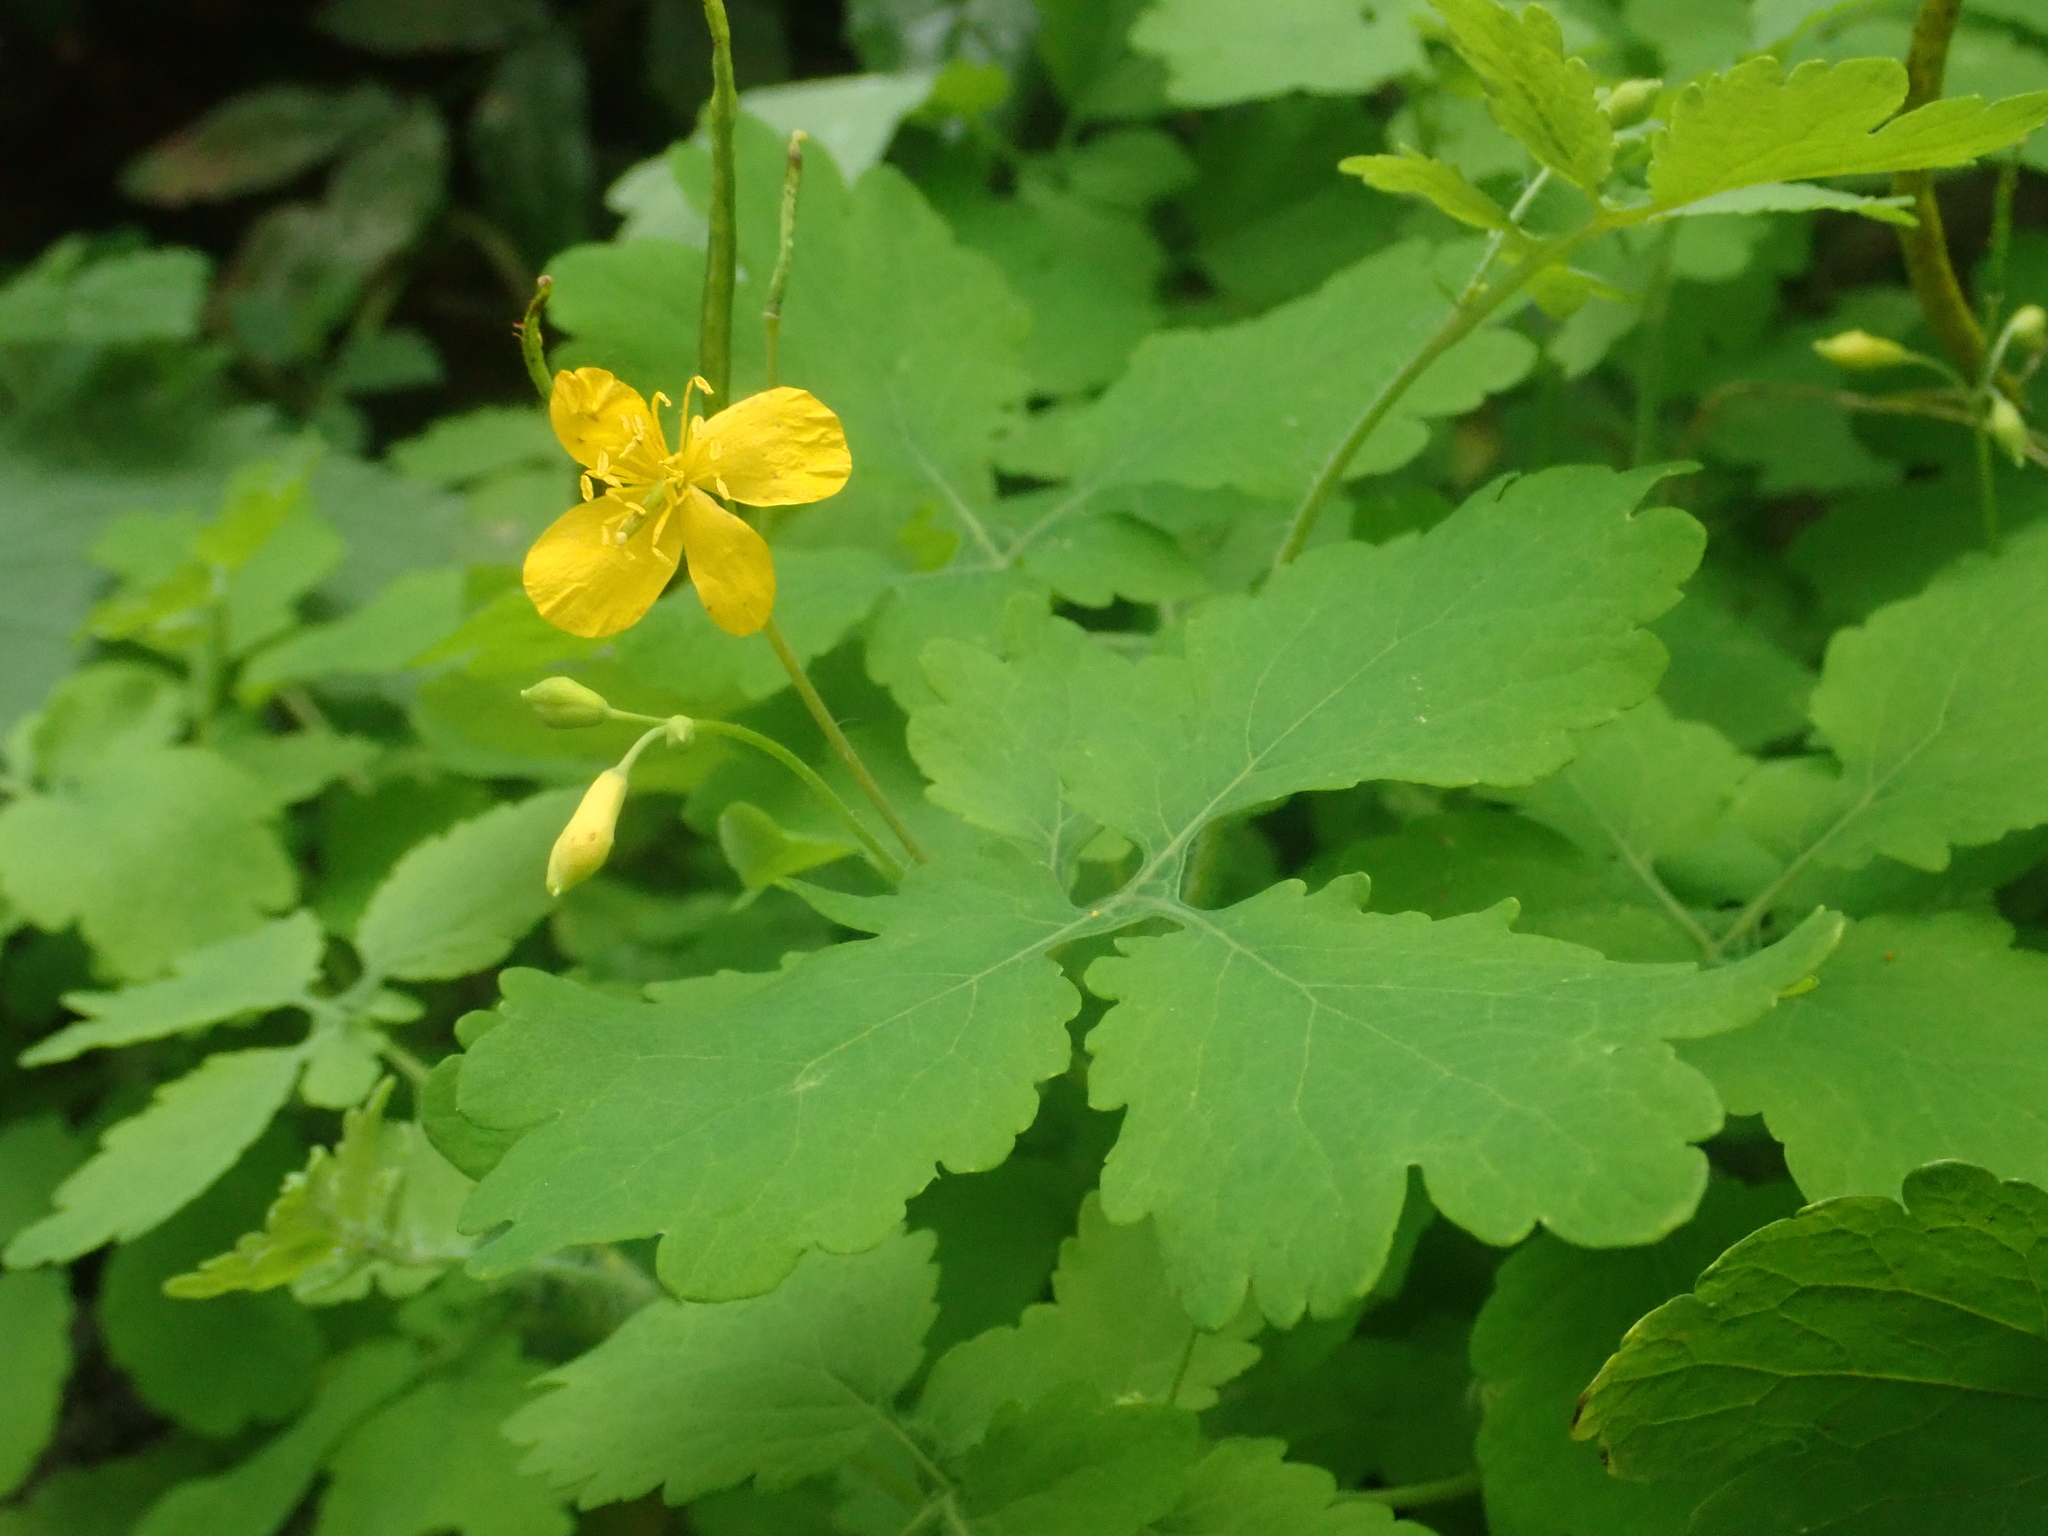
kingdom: Plantae
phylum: Tracheophyta
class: Magnoliopsida
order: Ranunculales
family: Papaveraceae
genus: Chelidonium
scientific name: Chelidonium majus
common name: Greater celandine
